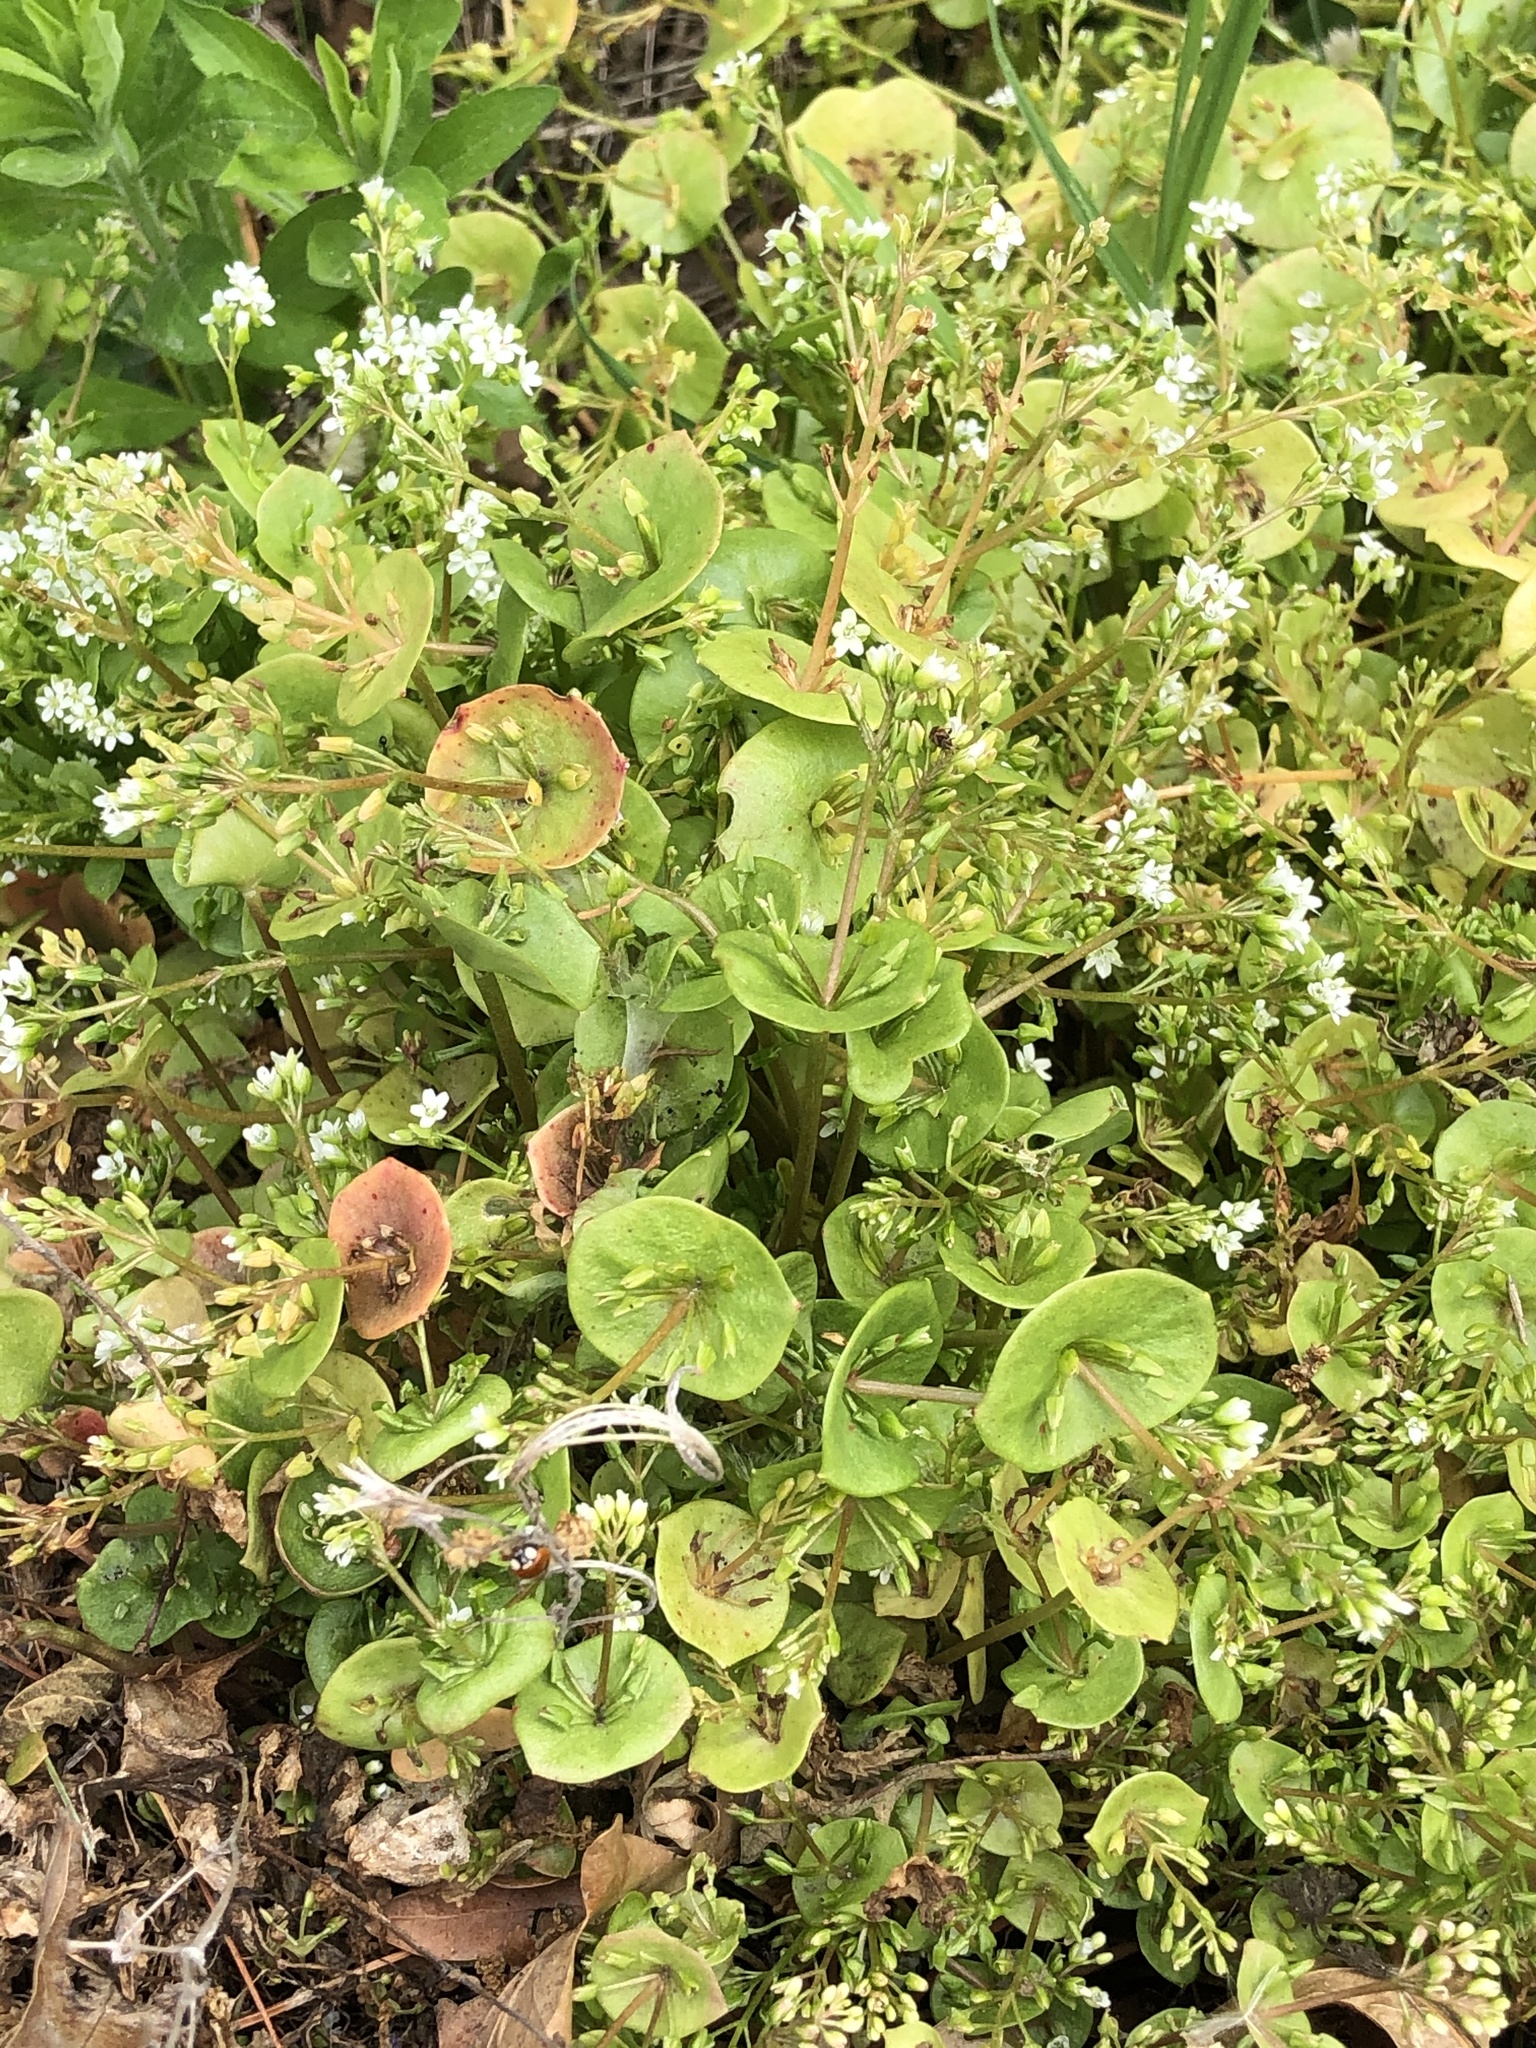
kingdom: Plantae
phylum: Tracheophyta
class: Magnoliopsida
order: Caryophyllales
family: Montiaceae
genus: Claytonia
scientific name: Claytonia perfoliata
